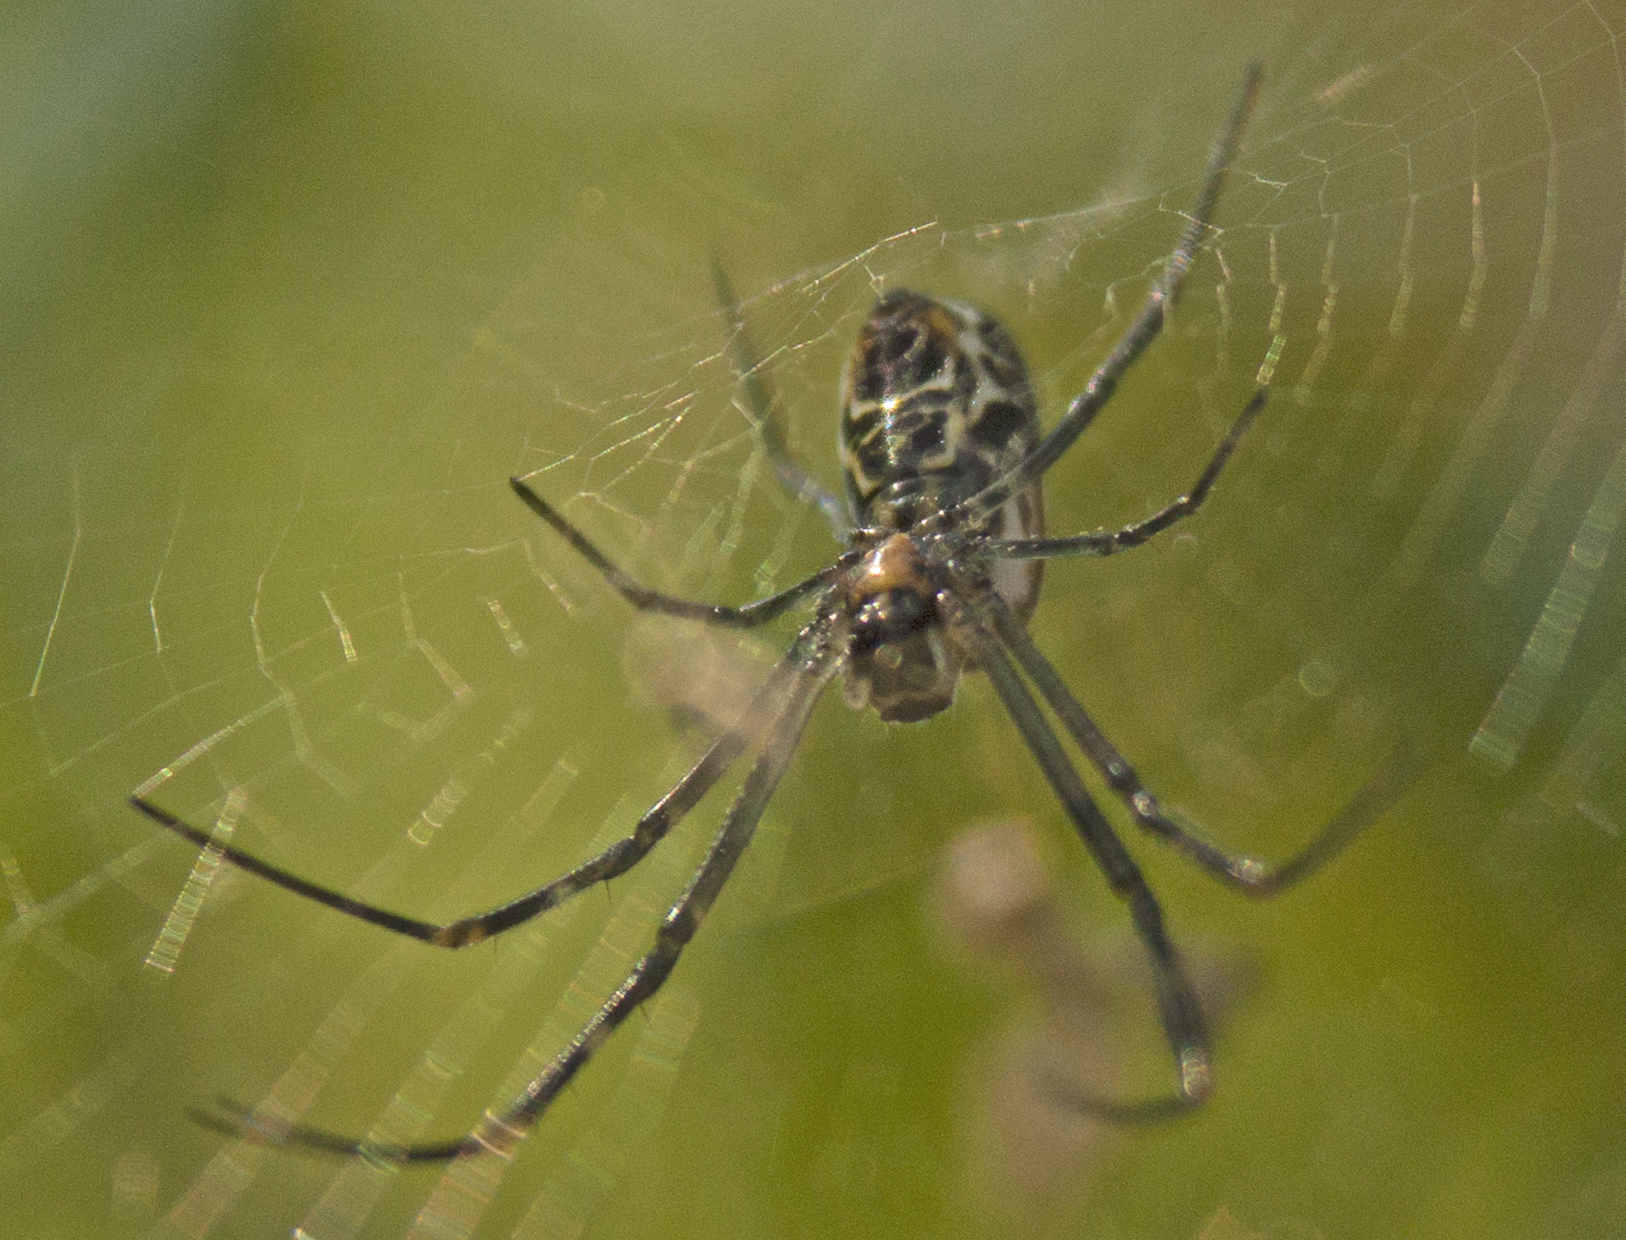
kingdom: Animalia
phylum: Arthropoda
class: Arachnida
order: Araneae
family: Tetragnathidae
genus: Leucauge
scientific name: Leucauge dromedaria
